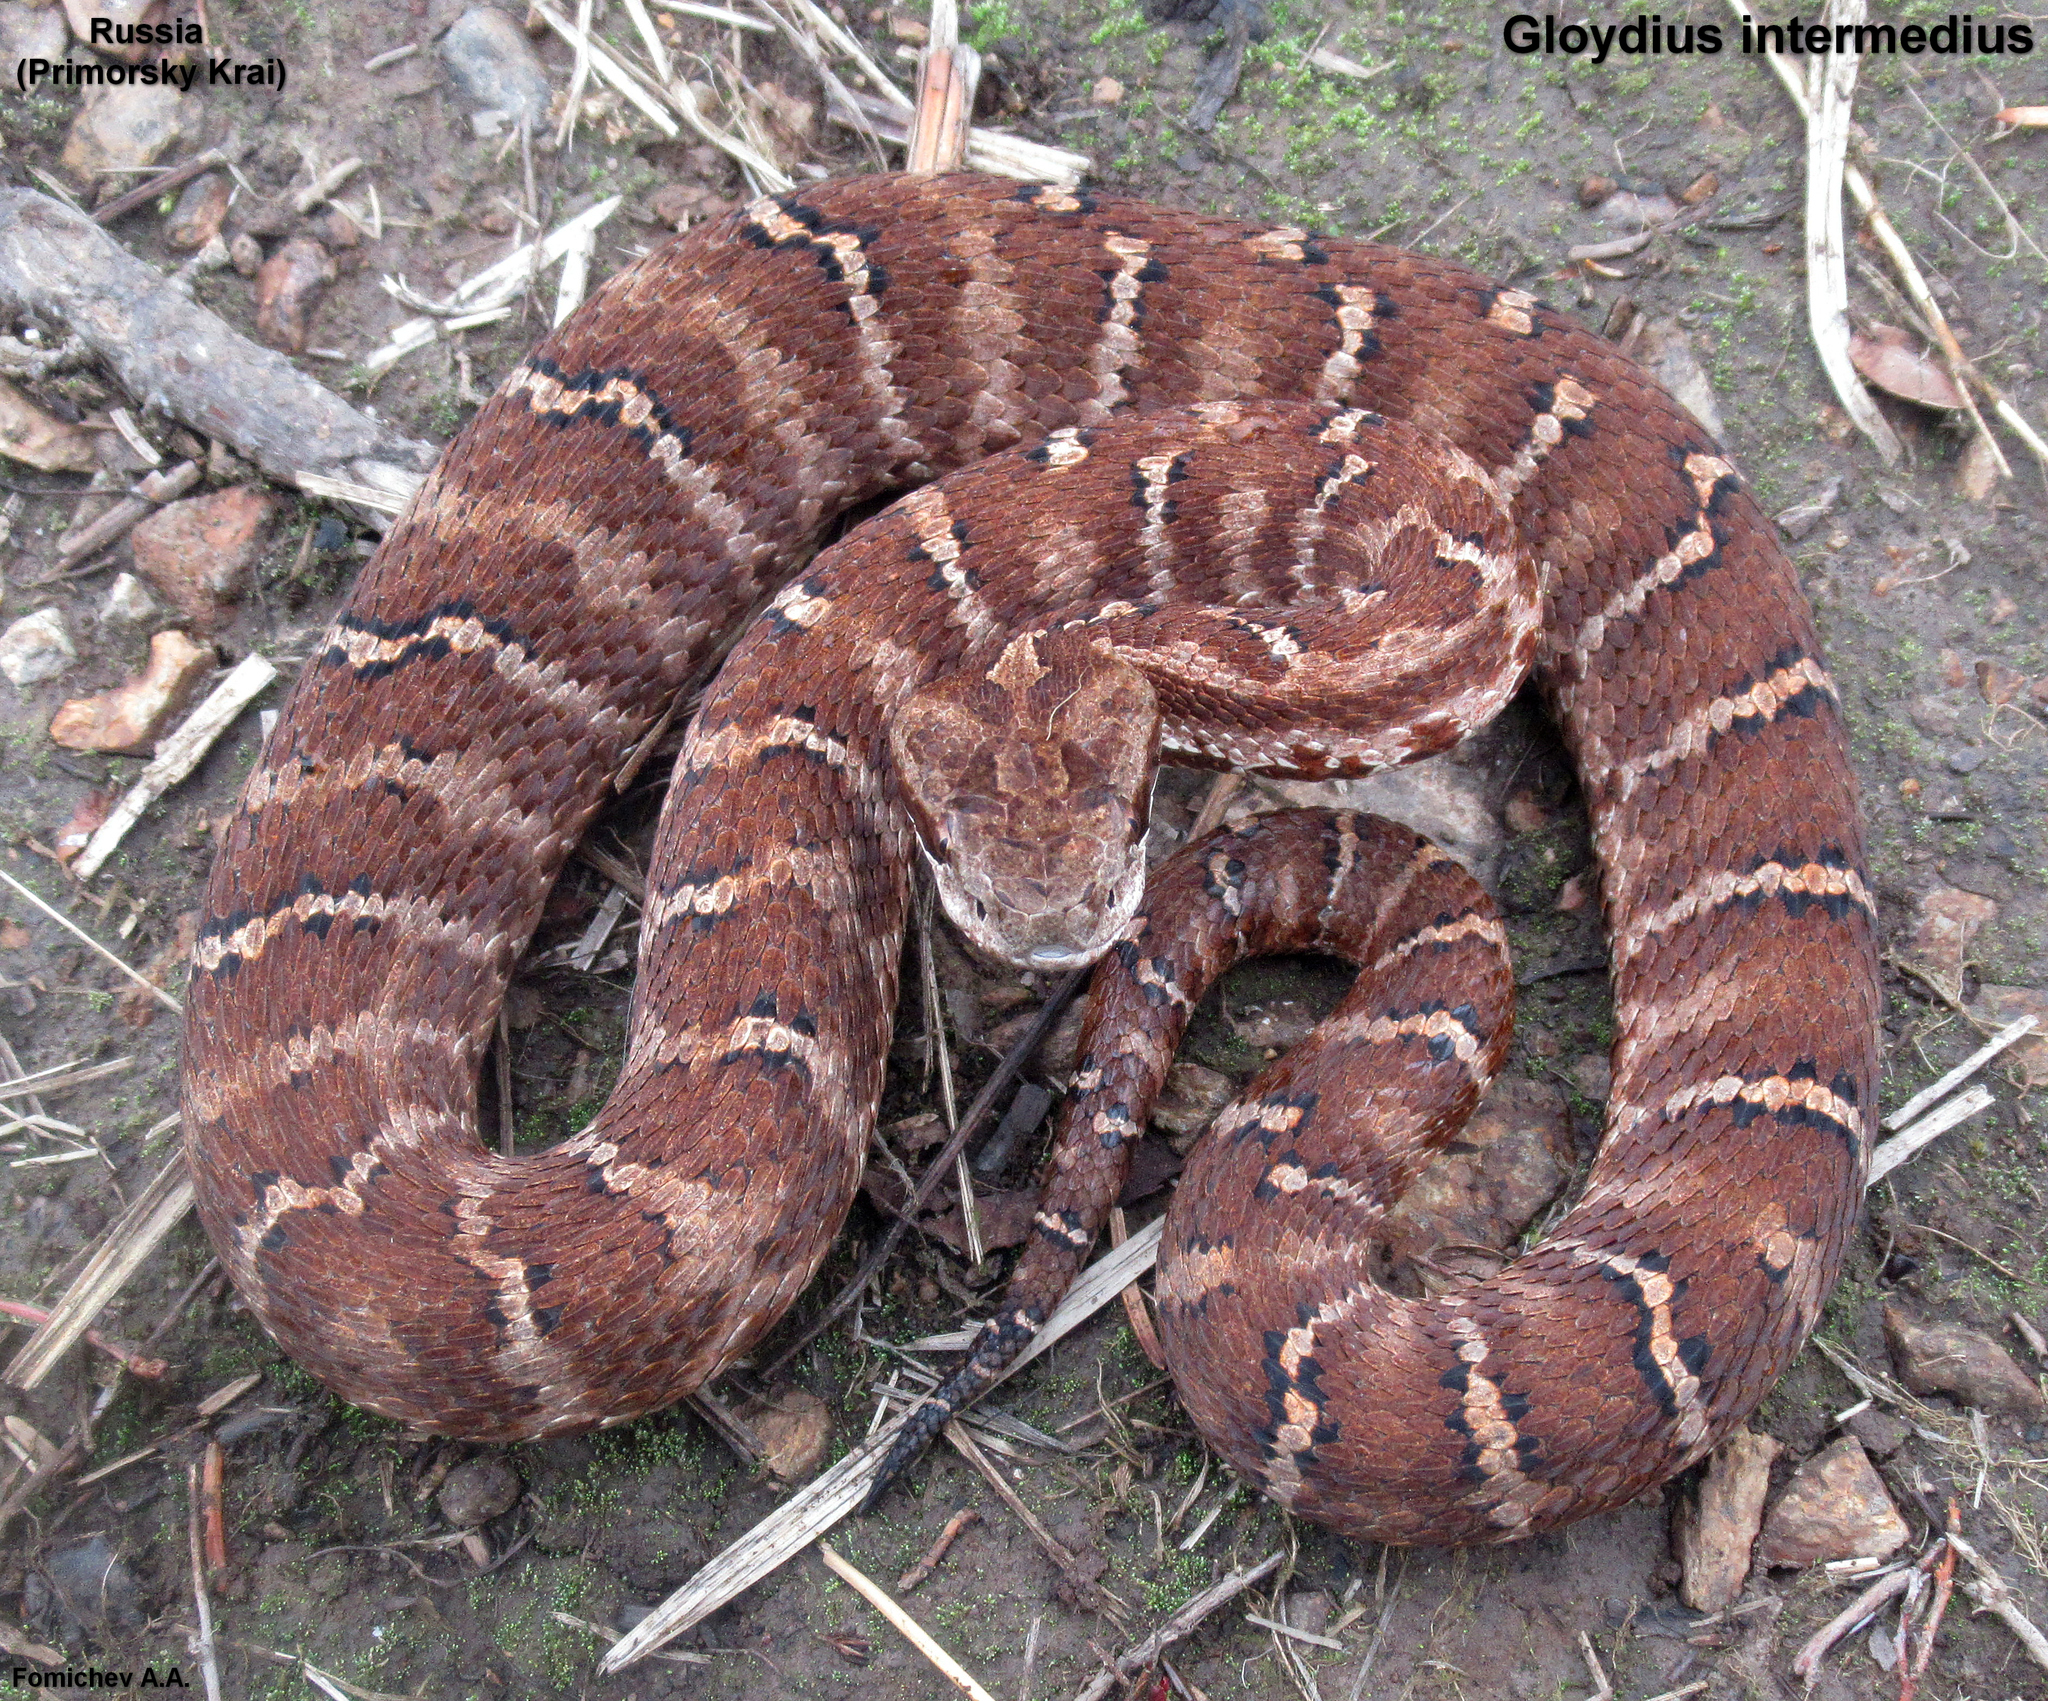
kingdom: Animalia
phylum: Chordata
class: Squamata
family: Viperidae
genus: Gloydius
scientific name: Gloydius intermedius
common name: Central asian pit viper
